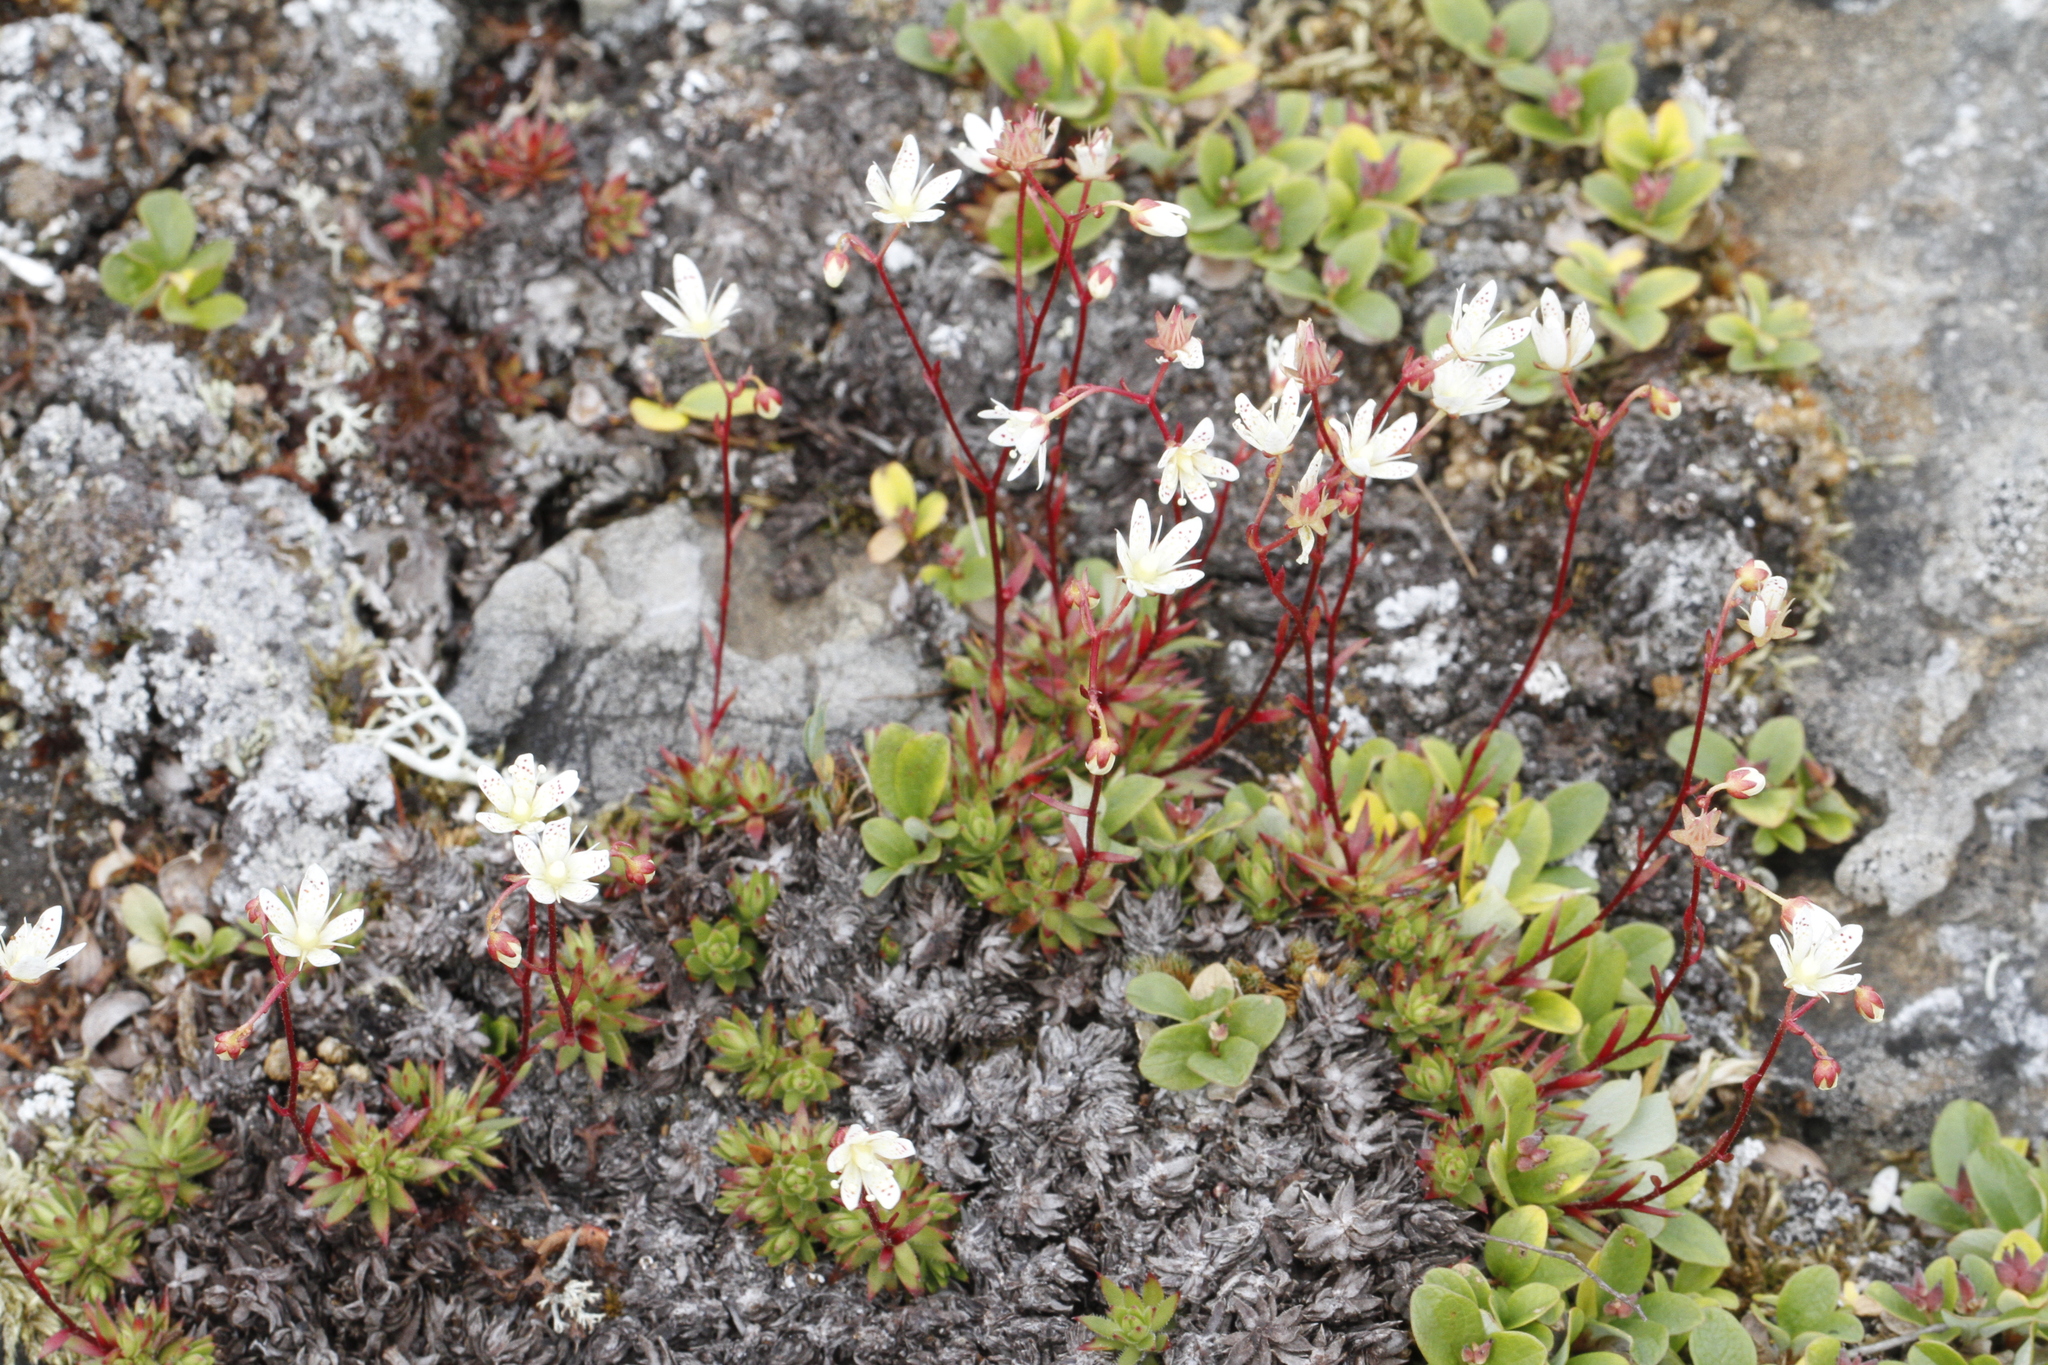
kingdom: Plantae
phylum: Tracheophyta
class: Magnoliopsida
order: Saxifragales
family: Saxifragaceae
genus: Saxifraga
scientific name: Saxifraga bronchialis
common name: Matted saxifrage
